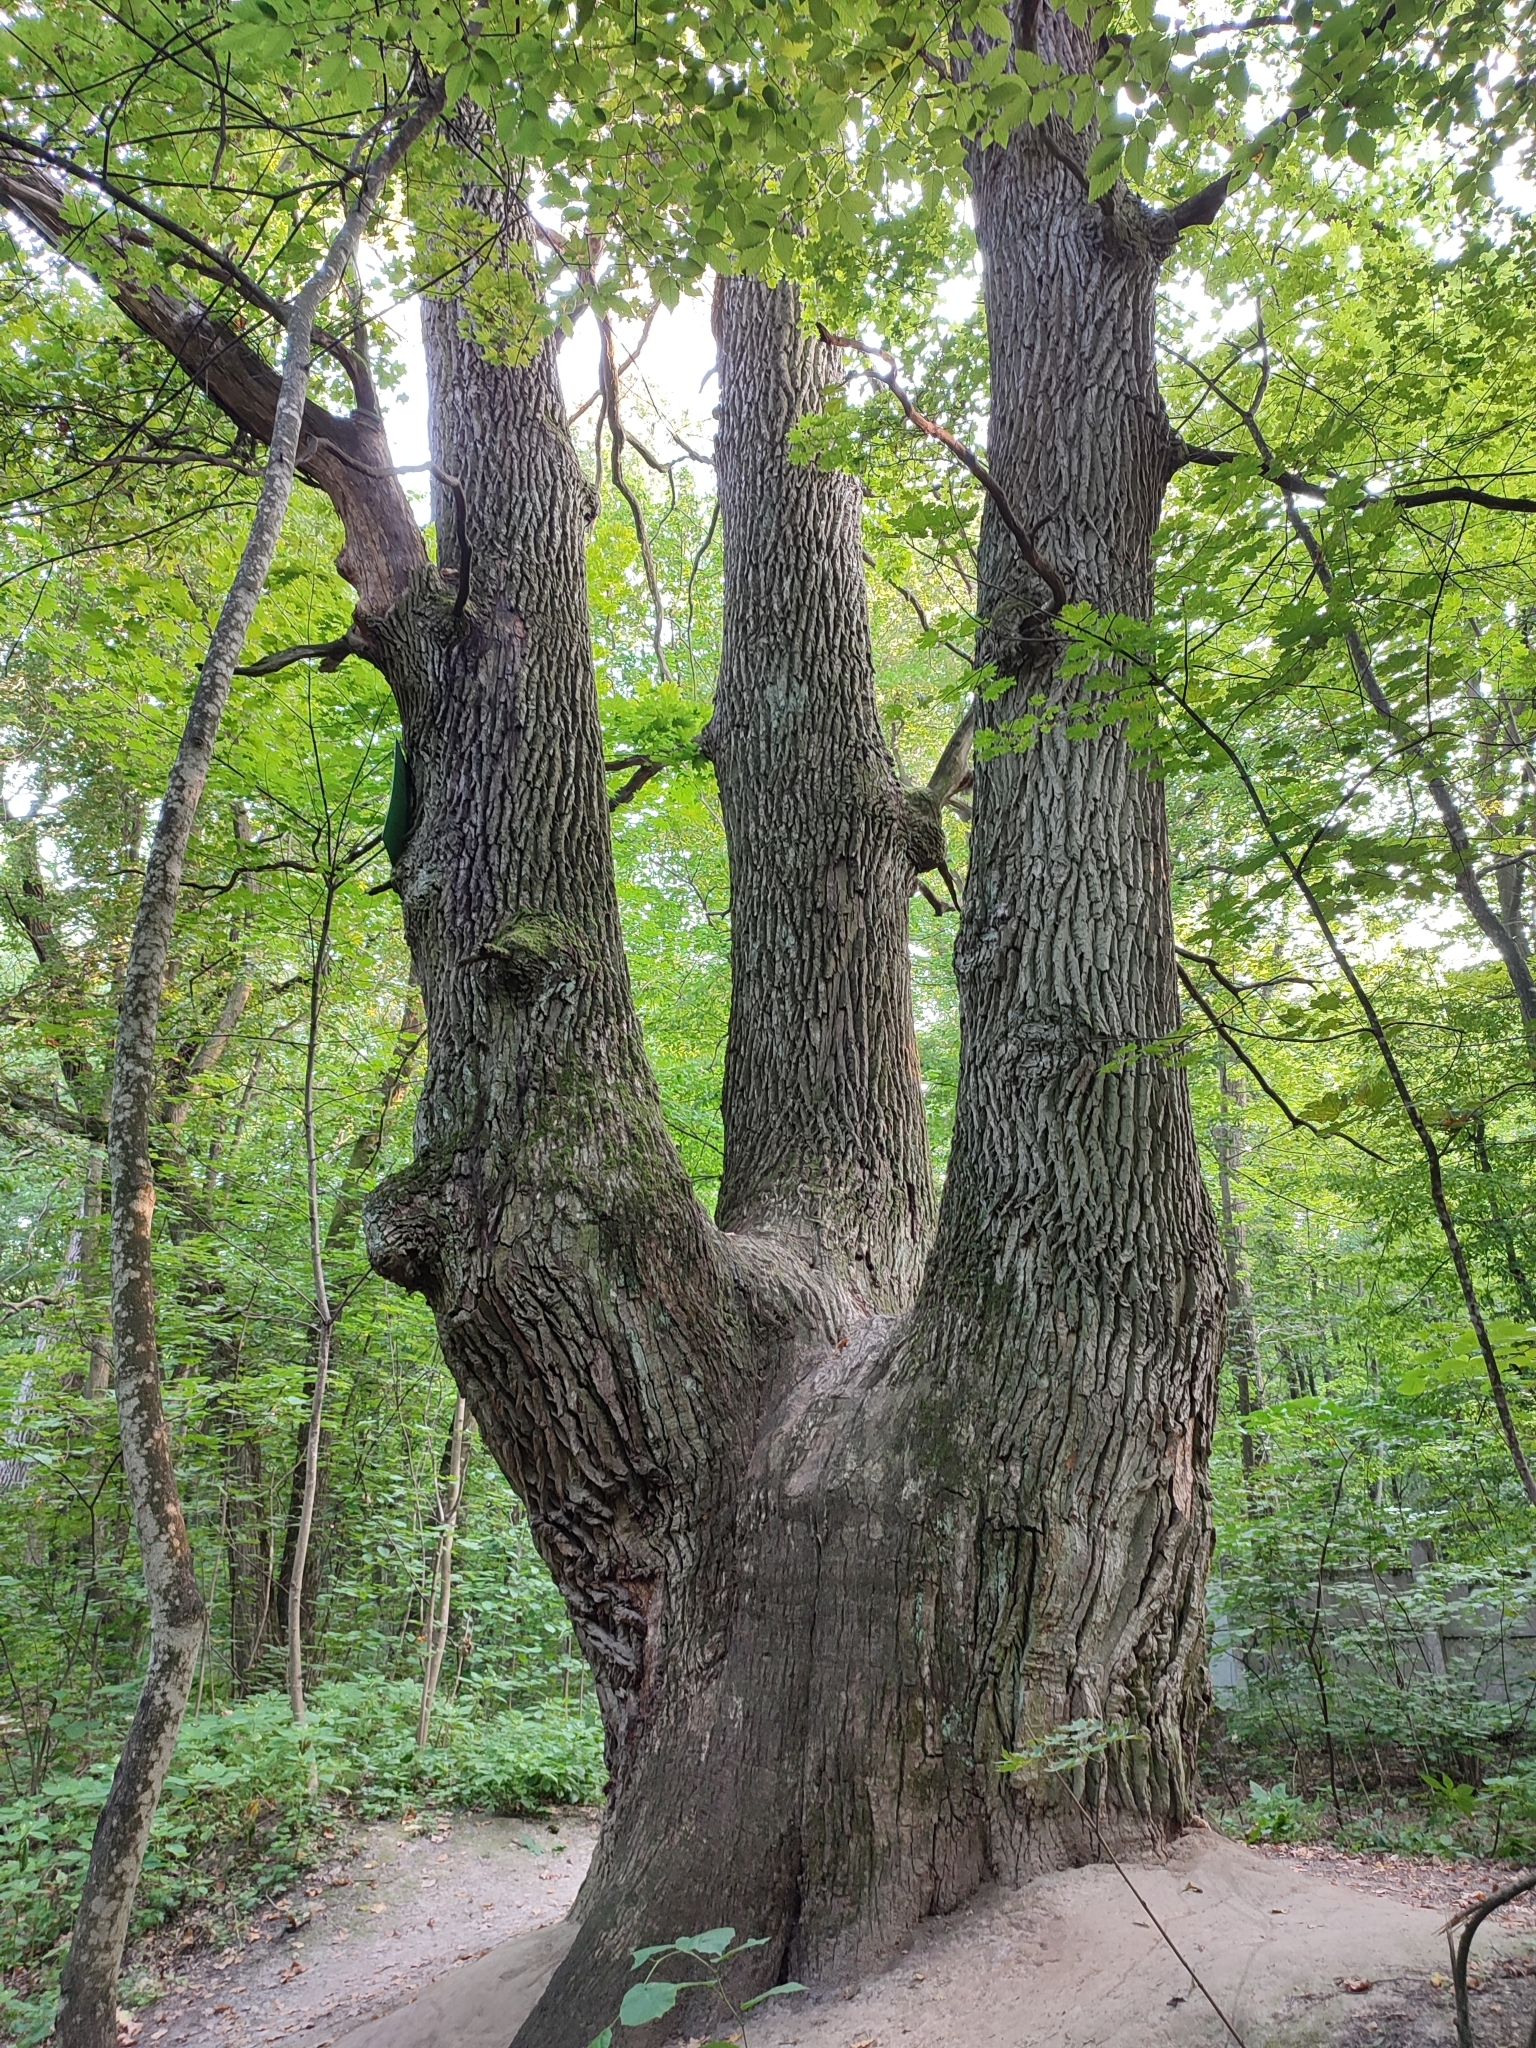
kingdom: Plantae
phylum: Tracheophyta
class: Magnoliopsida
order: Fagales
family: Fagaceae
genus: Quercus
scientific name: Quercus robur
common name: Pedunculate oak
